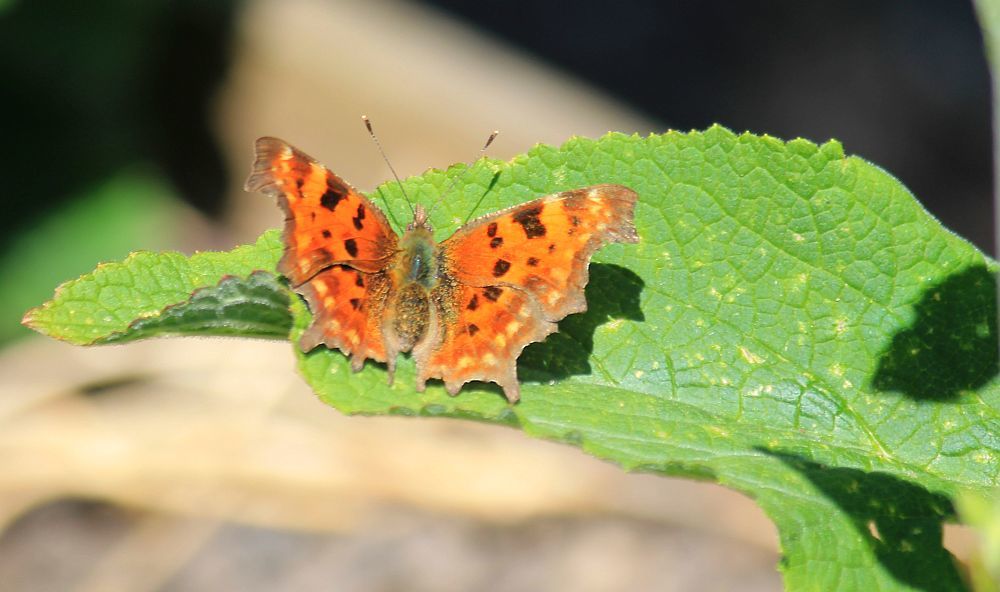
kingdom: Animalia
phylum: Arthropoda
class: Insecta
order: Lepidoptera
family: Nymphalidae
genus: Polygonia
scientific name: Polygonia c-album
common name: Comma
